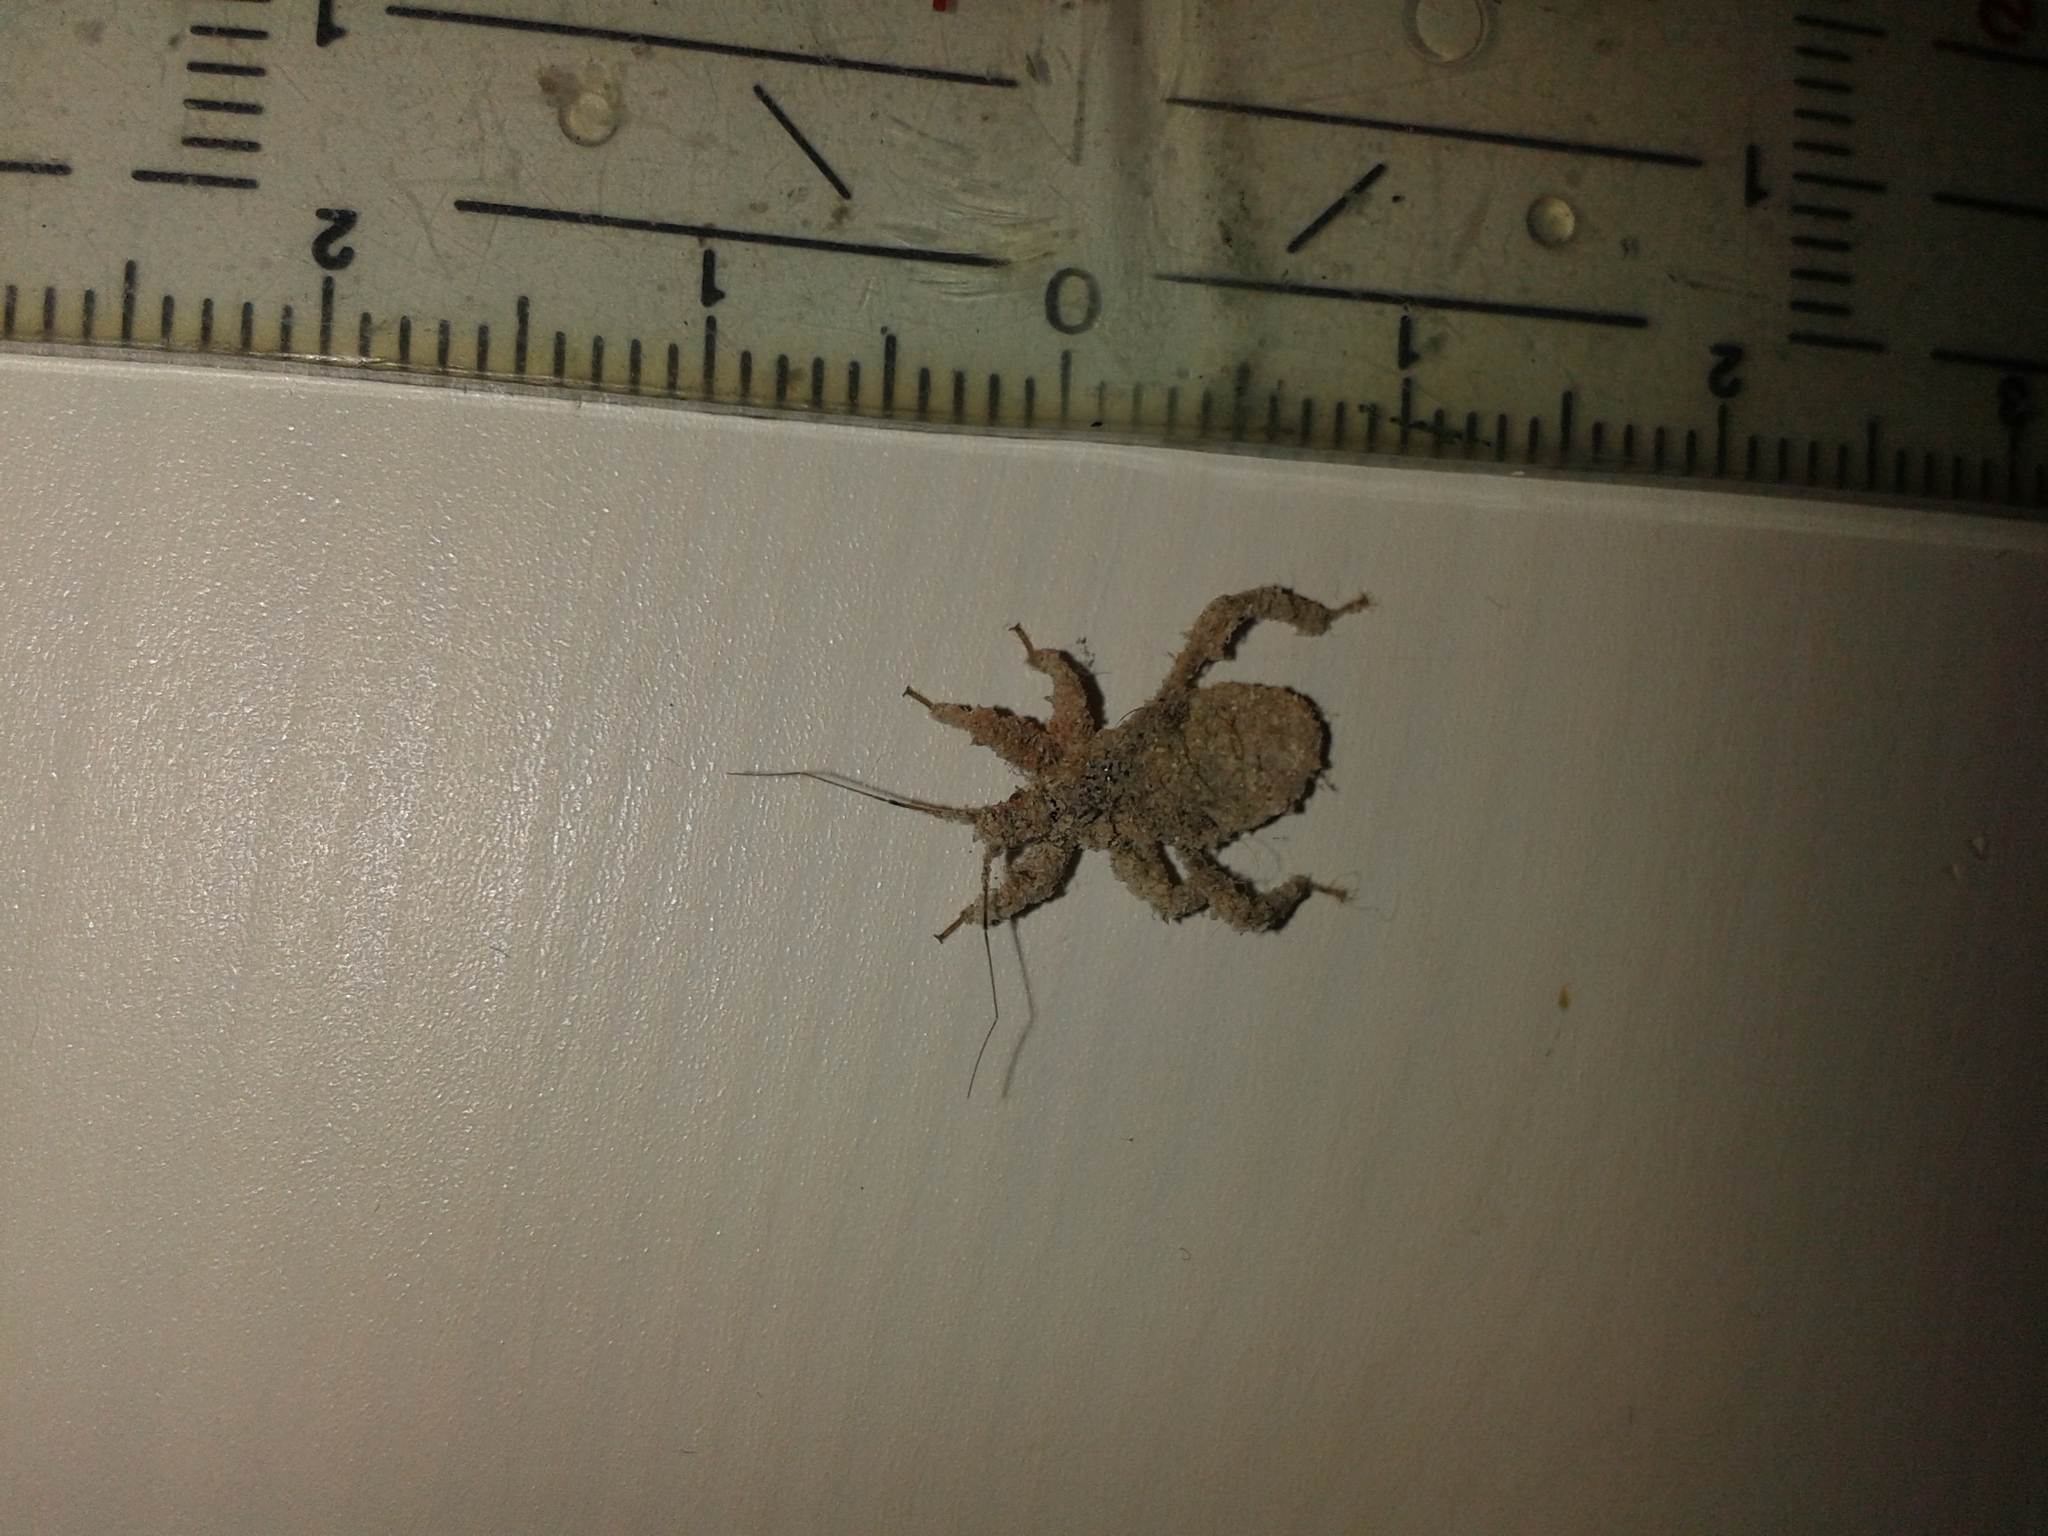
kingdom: Animalia
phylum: Arthropoda
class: Insecta
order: Hemiptera
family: Reduviidae
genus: Reduvius
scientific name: Reduvius personatus
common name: Masked hunter
